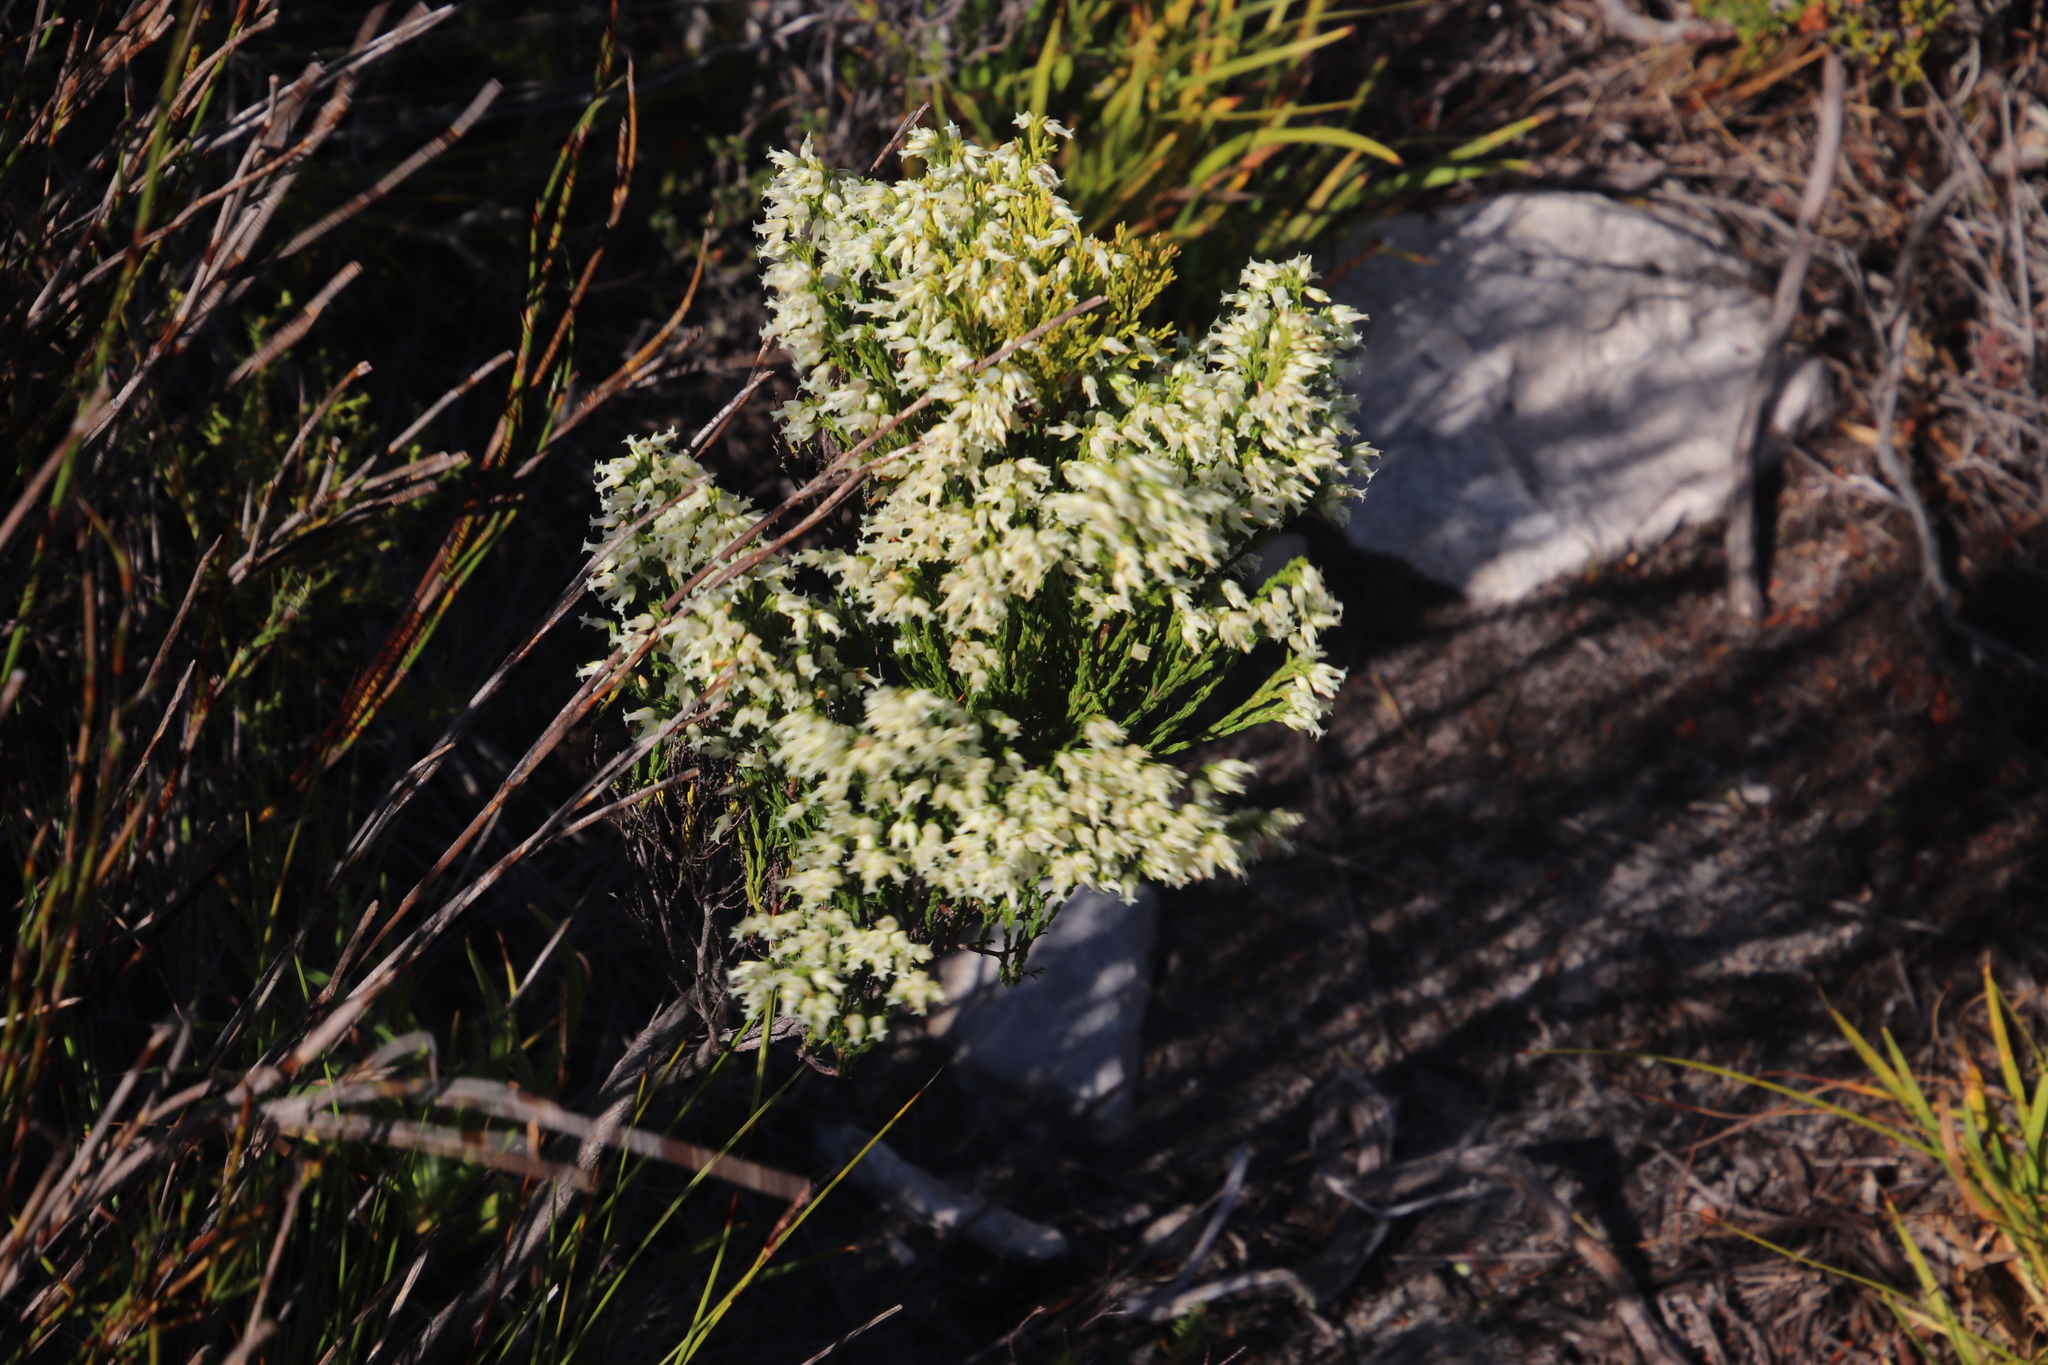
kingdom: Plantae
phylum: Tracheophyta
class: Magnoliopsida
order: Ericales
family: Ericaceae
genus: Erica
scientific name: Erica lutea
